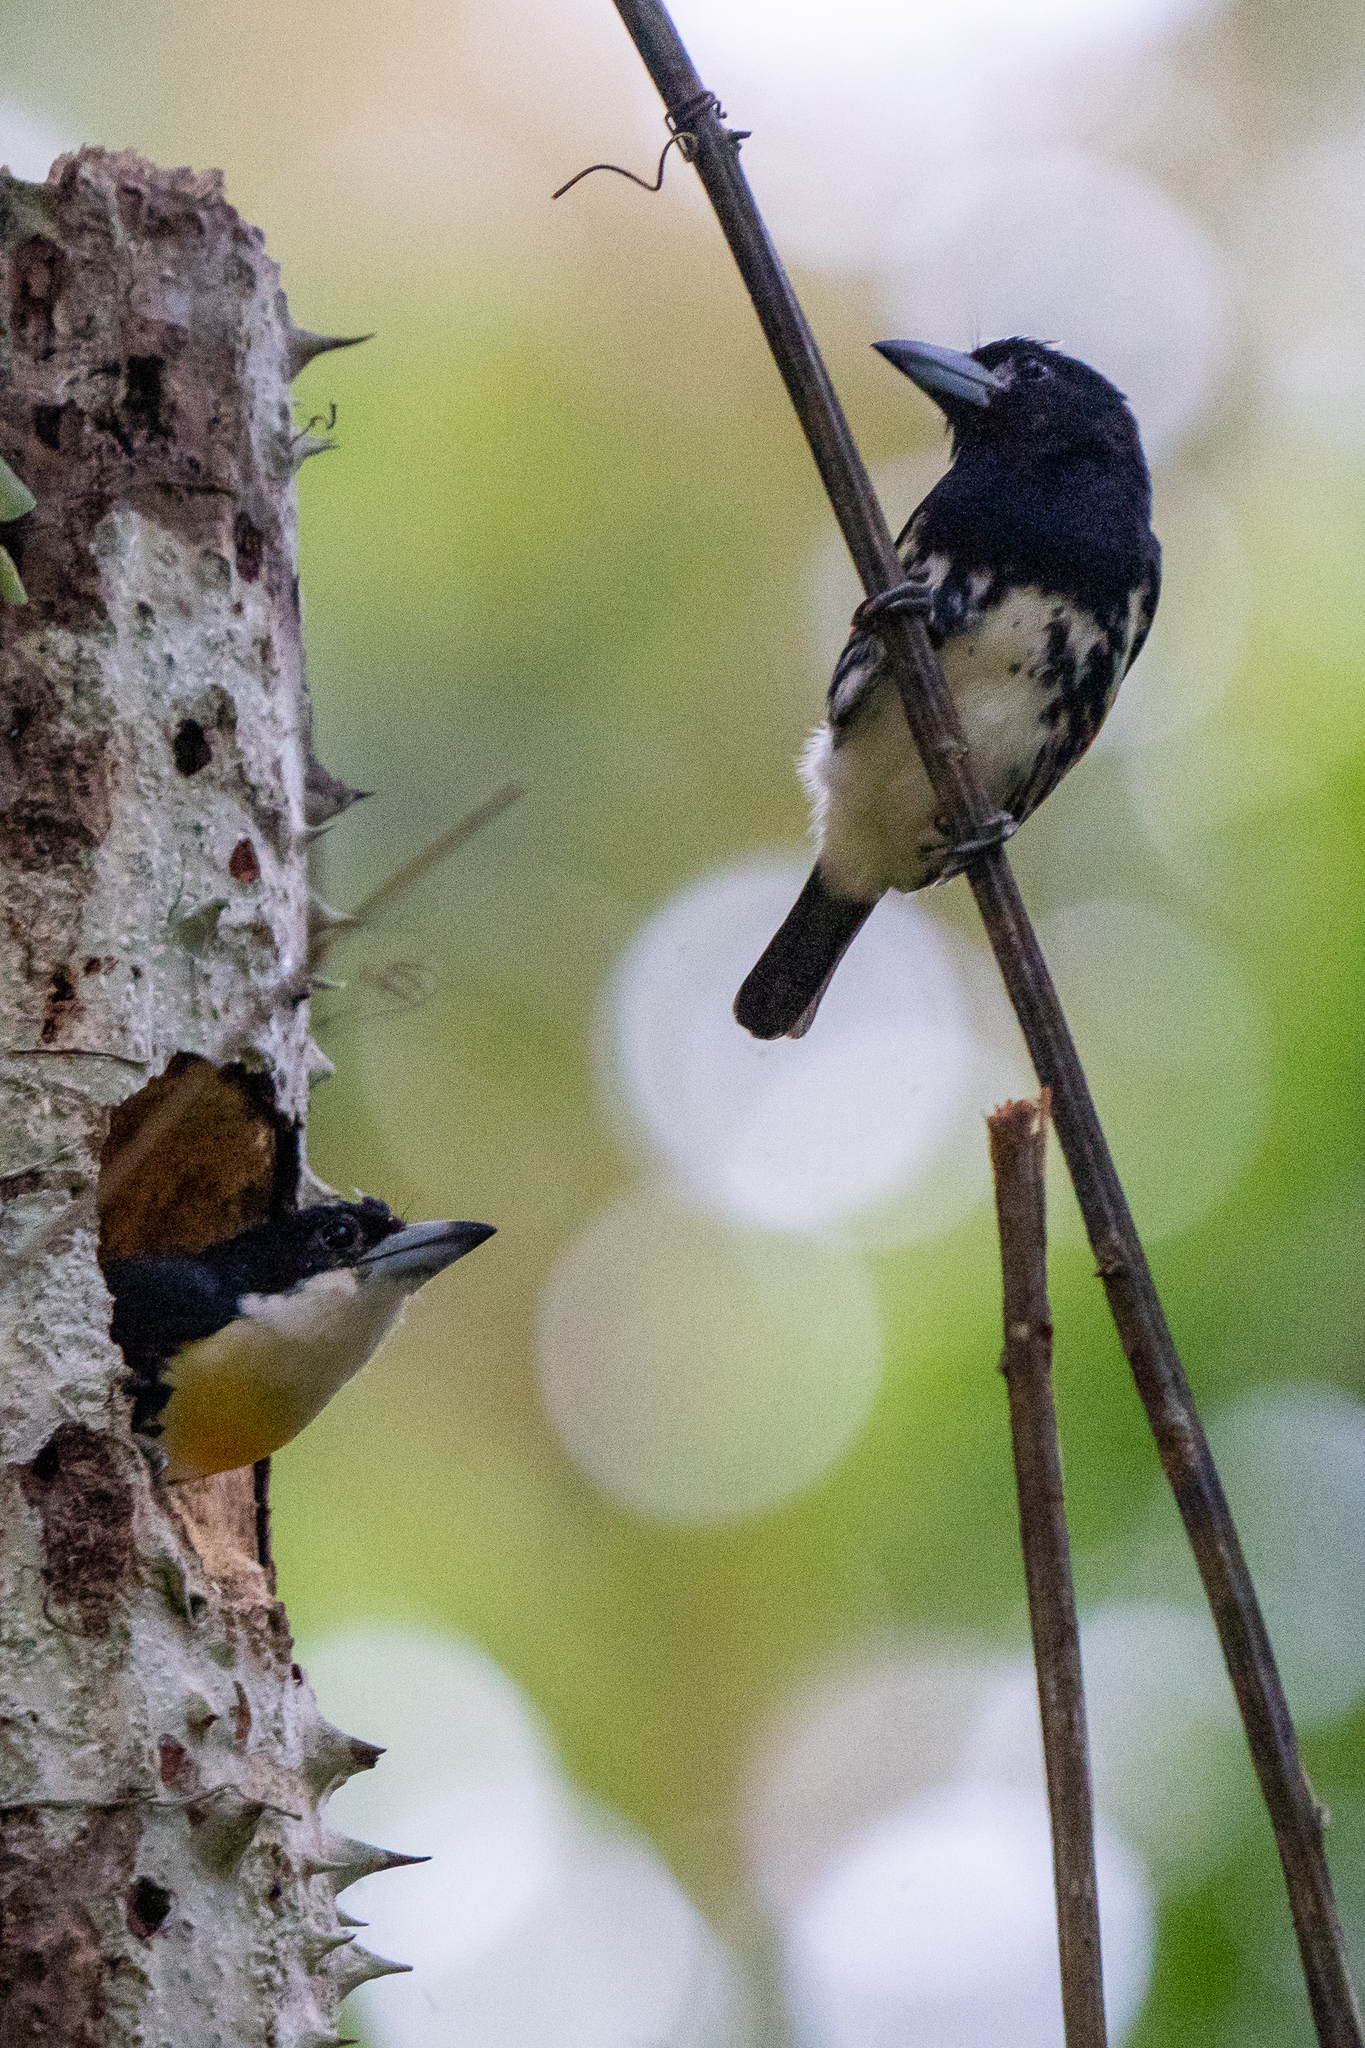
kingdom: Animalia
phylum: Chordata
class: Aves
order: Piciformes
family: Capitonidae
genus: Capito
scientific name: Capito maculicoronatus
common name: Spot-crowned barbet
